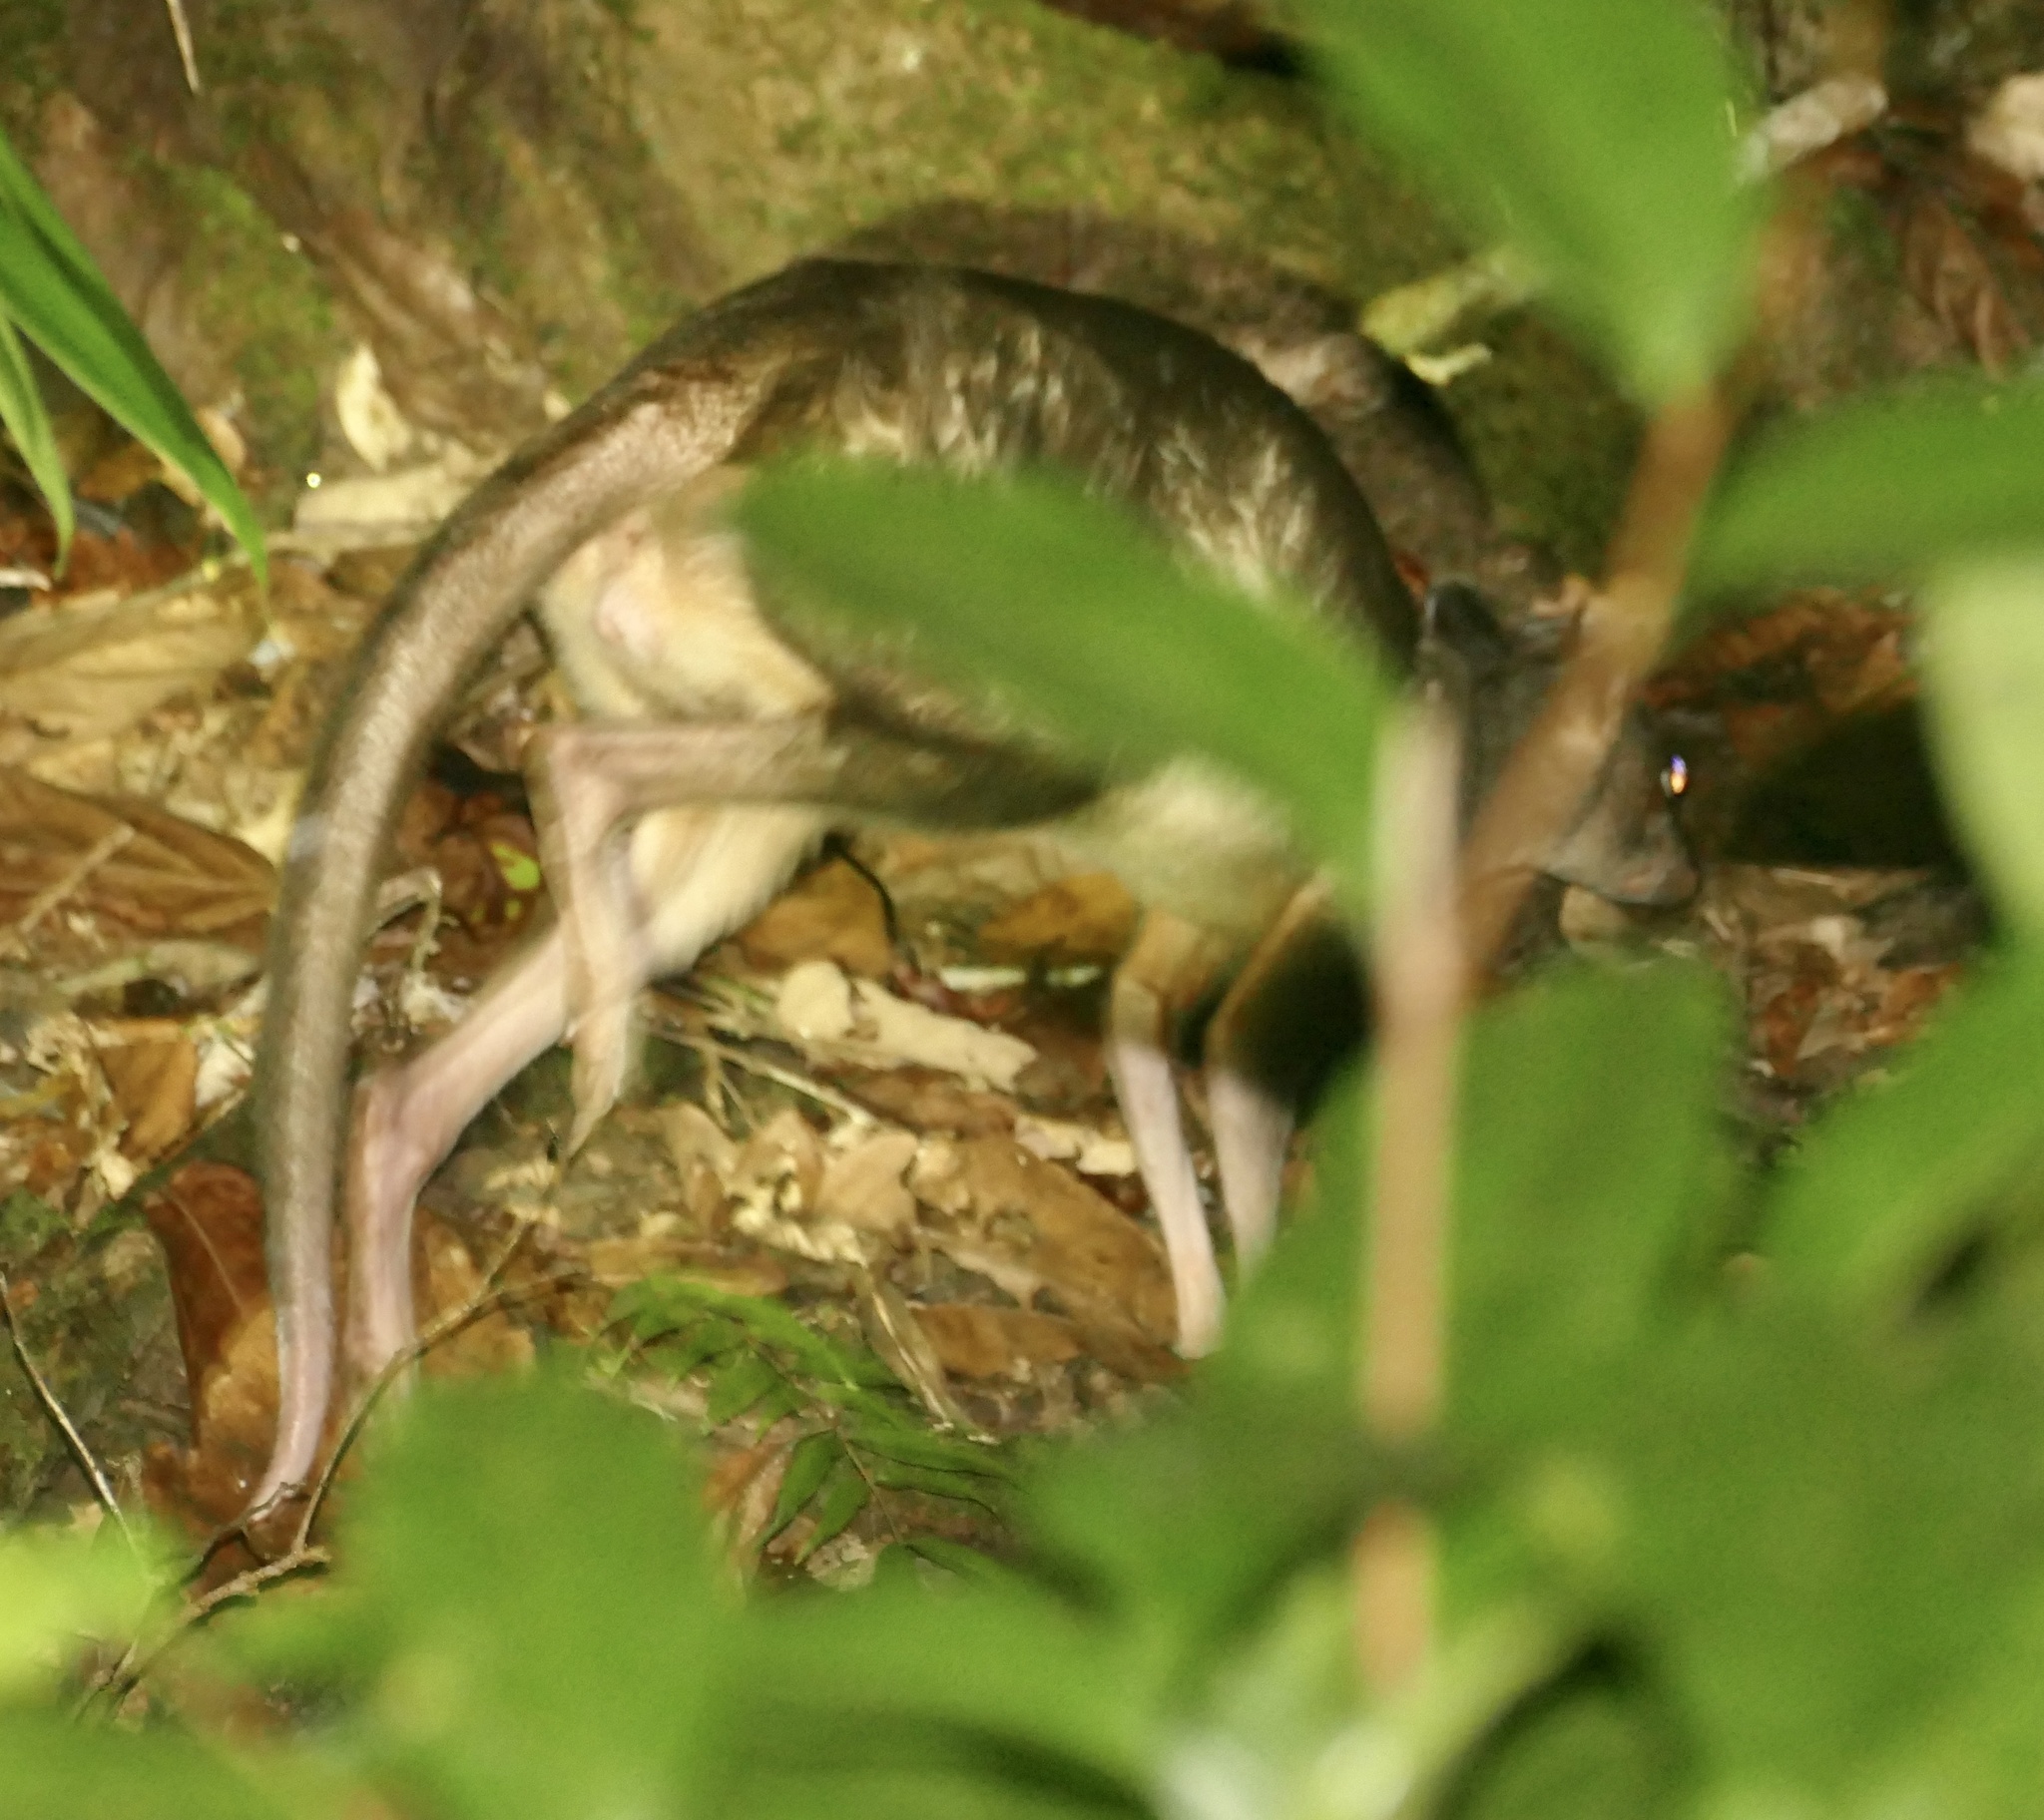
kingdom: Animalia
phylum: Chordata
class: Mammalia
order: Diprotodontia
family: Macropodidae
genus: Dorcopsis
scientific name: Dorcopsis muelleri
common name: Brown dorcopsis
